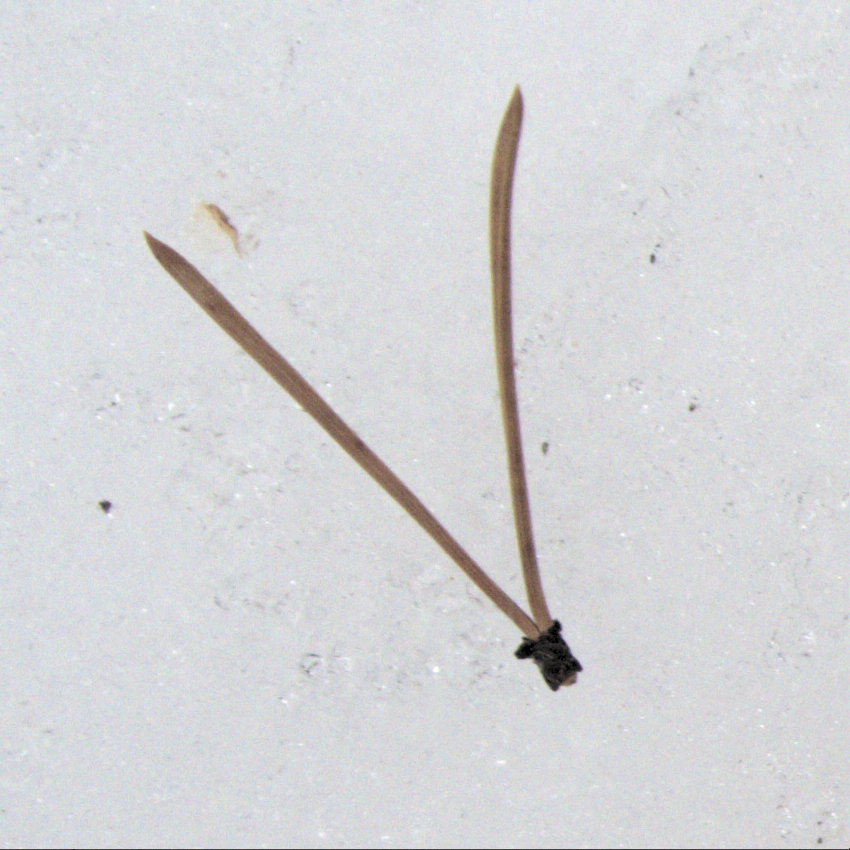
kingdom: Plantae
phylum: Tracheophyta
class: Pinopsida
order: Pinales
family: Pinaceae
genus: Pinus
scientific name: Pinus banksiana
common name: Jack pine
